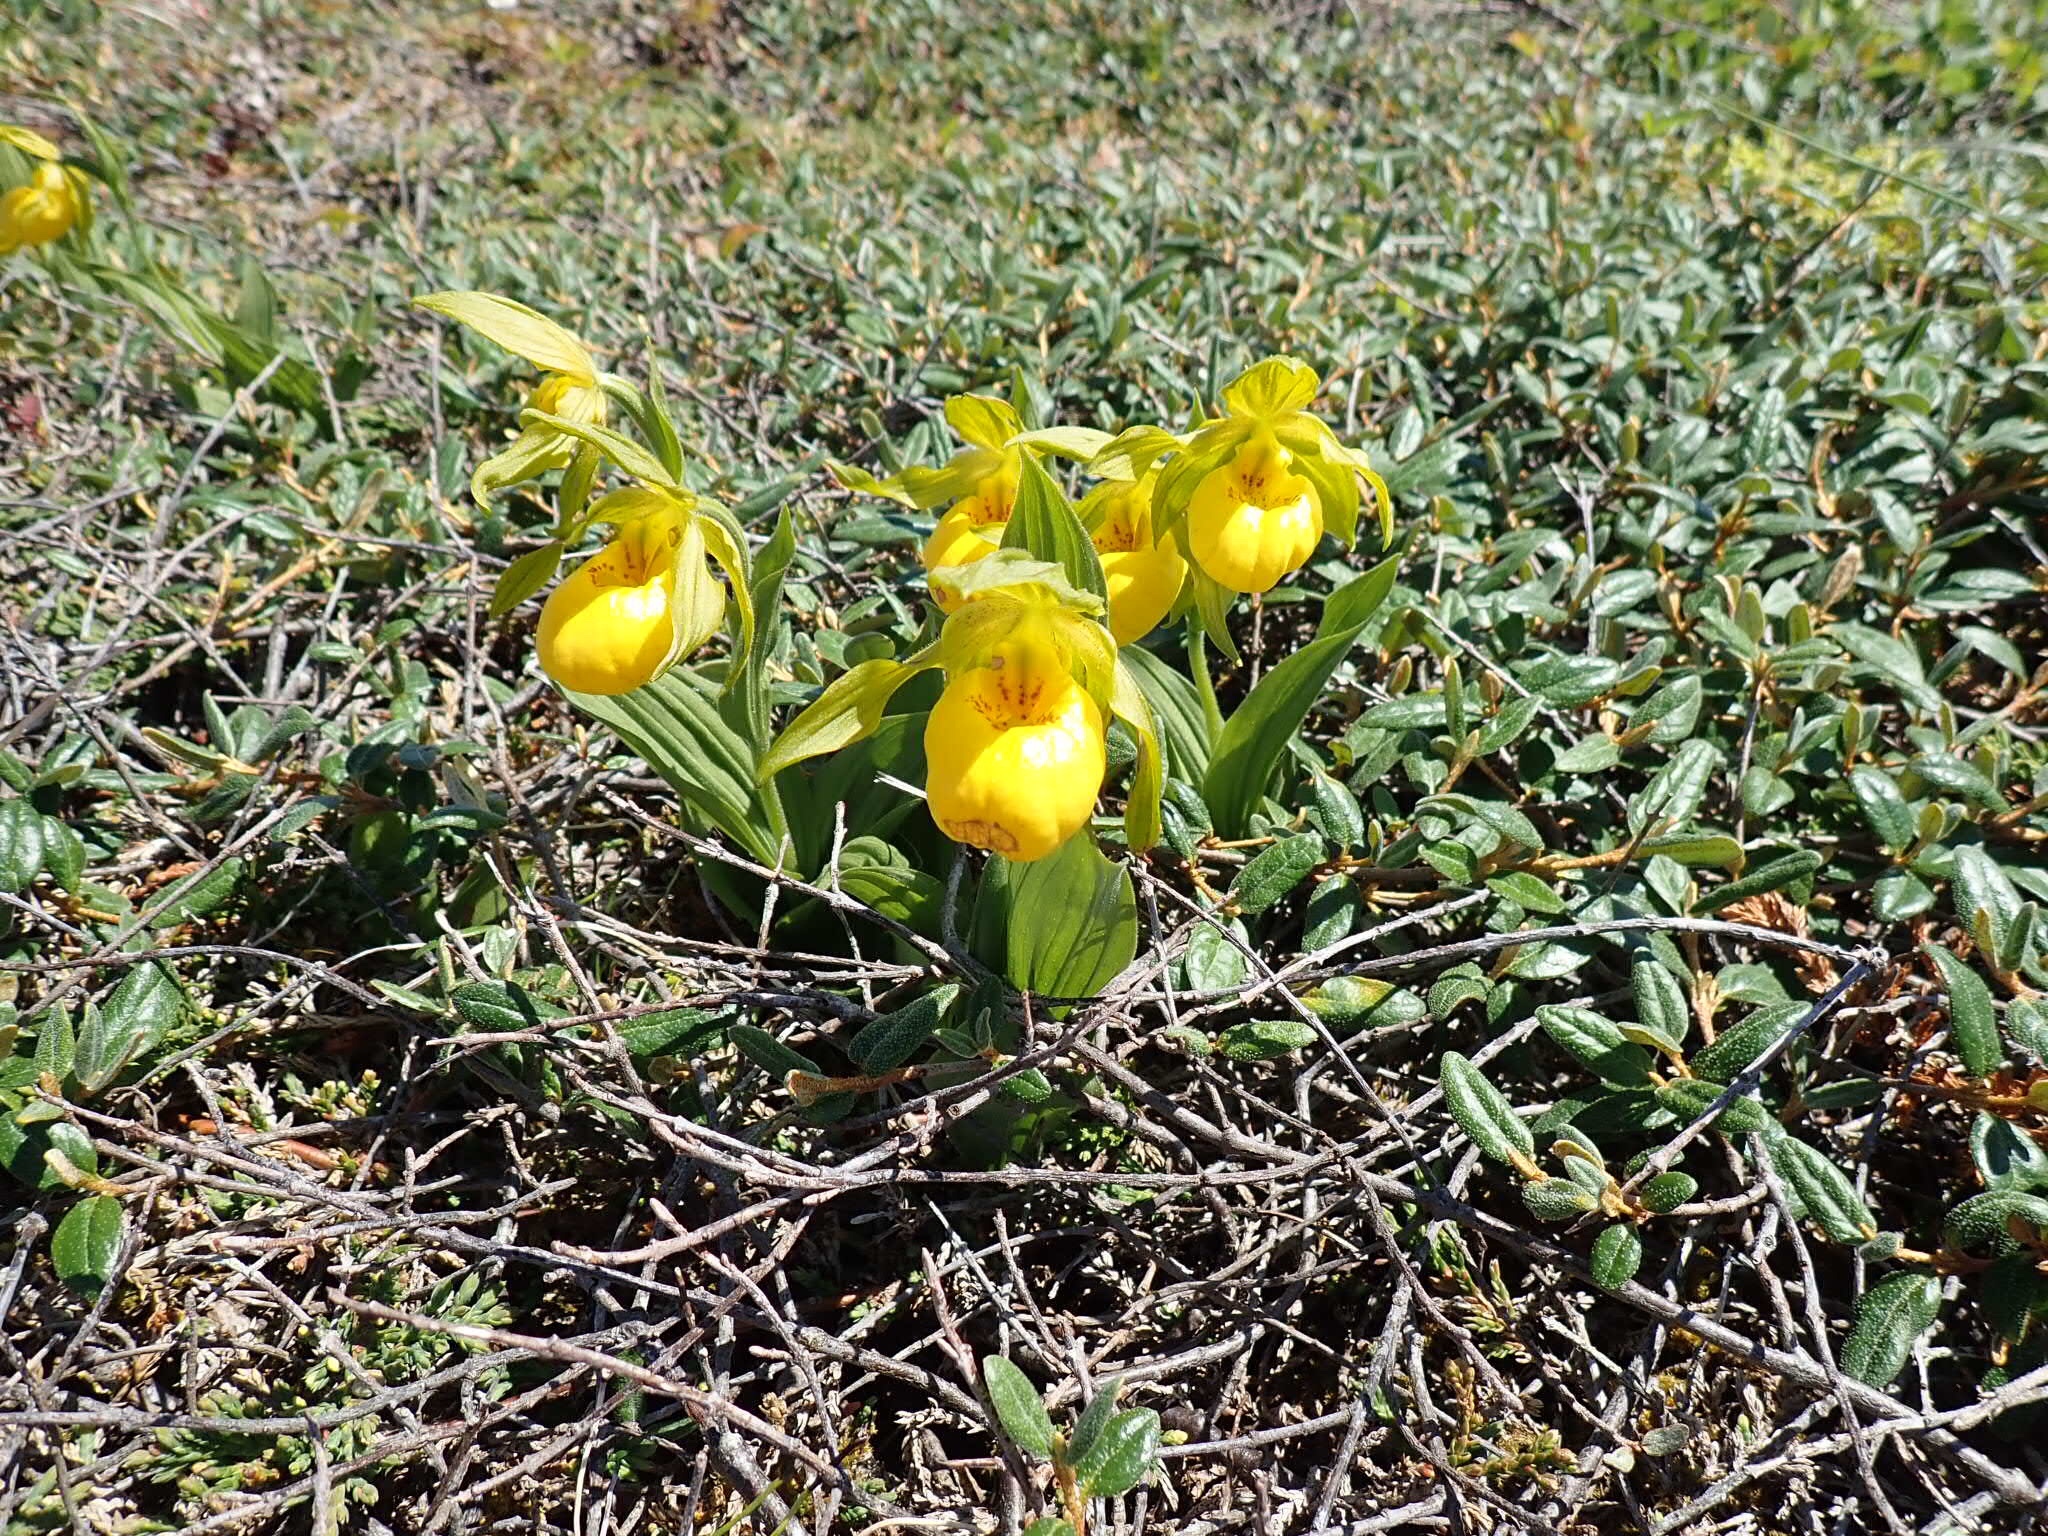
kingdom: Plantae
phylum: Tracheophyta
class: Liliopsida
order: Asparagales
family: Orchidaceae
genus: Cypripedium
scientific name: Cypripedium parviflorum
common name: American yellow lady's-slipper
